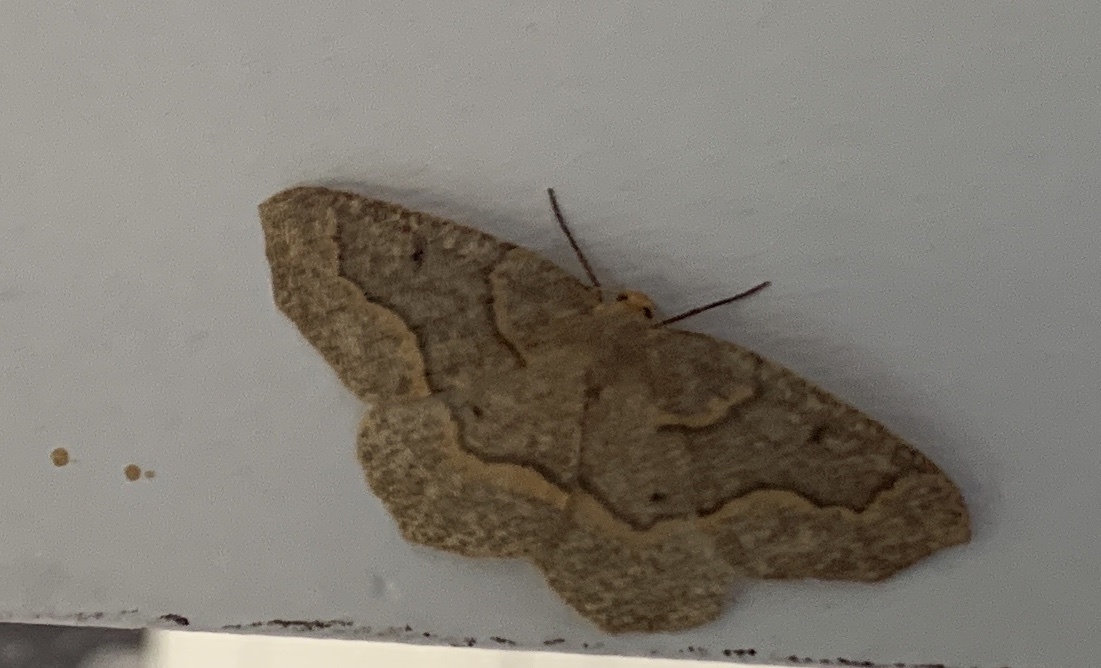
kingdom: Animalia
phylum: Arthropoda
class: Insecta
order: Lepidoptera
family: Geometridae
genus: Lambdina
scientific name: Lambdina fiscellaria
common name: Hemlock looper
